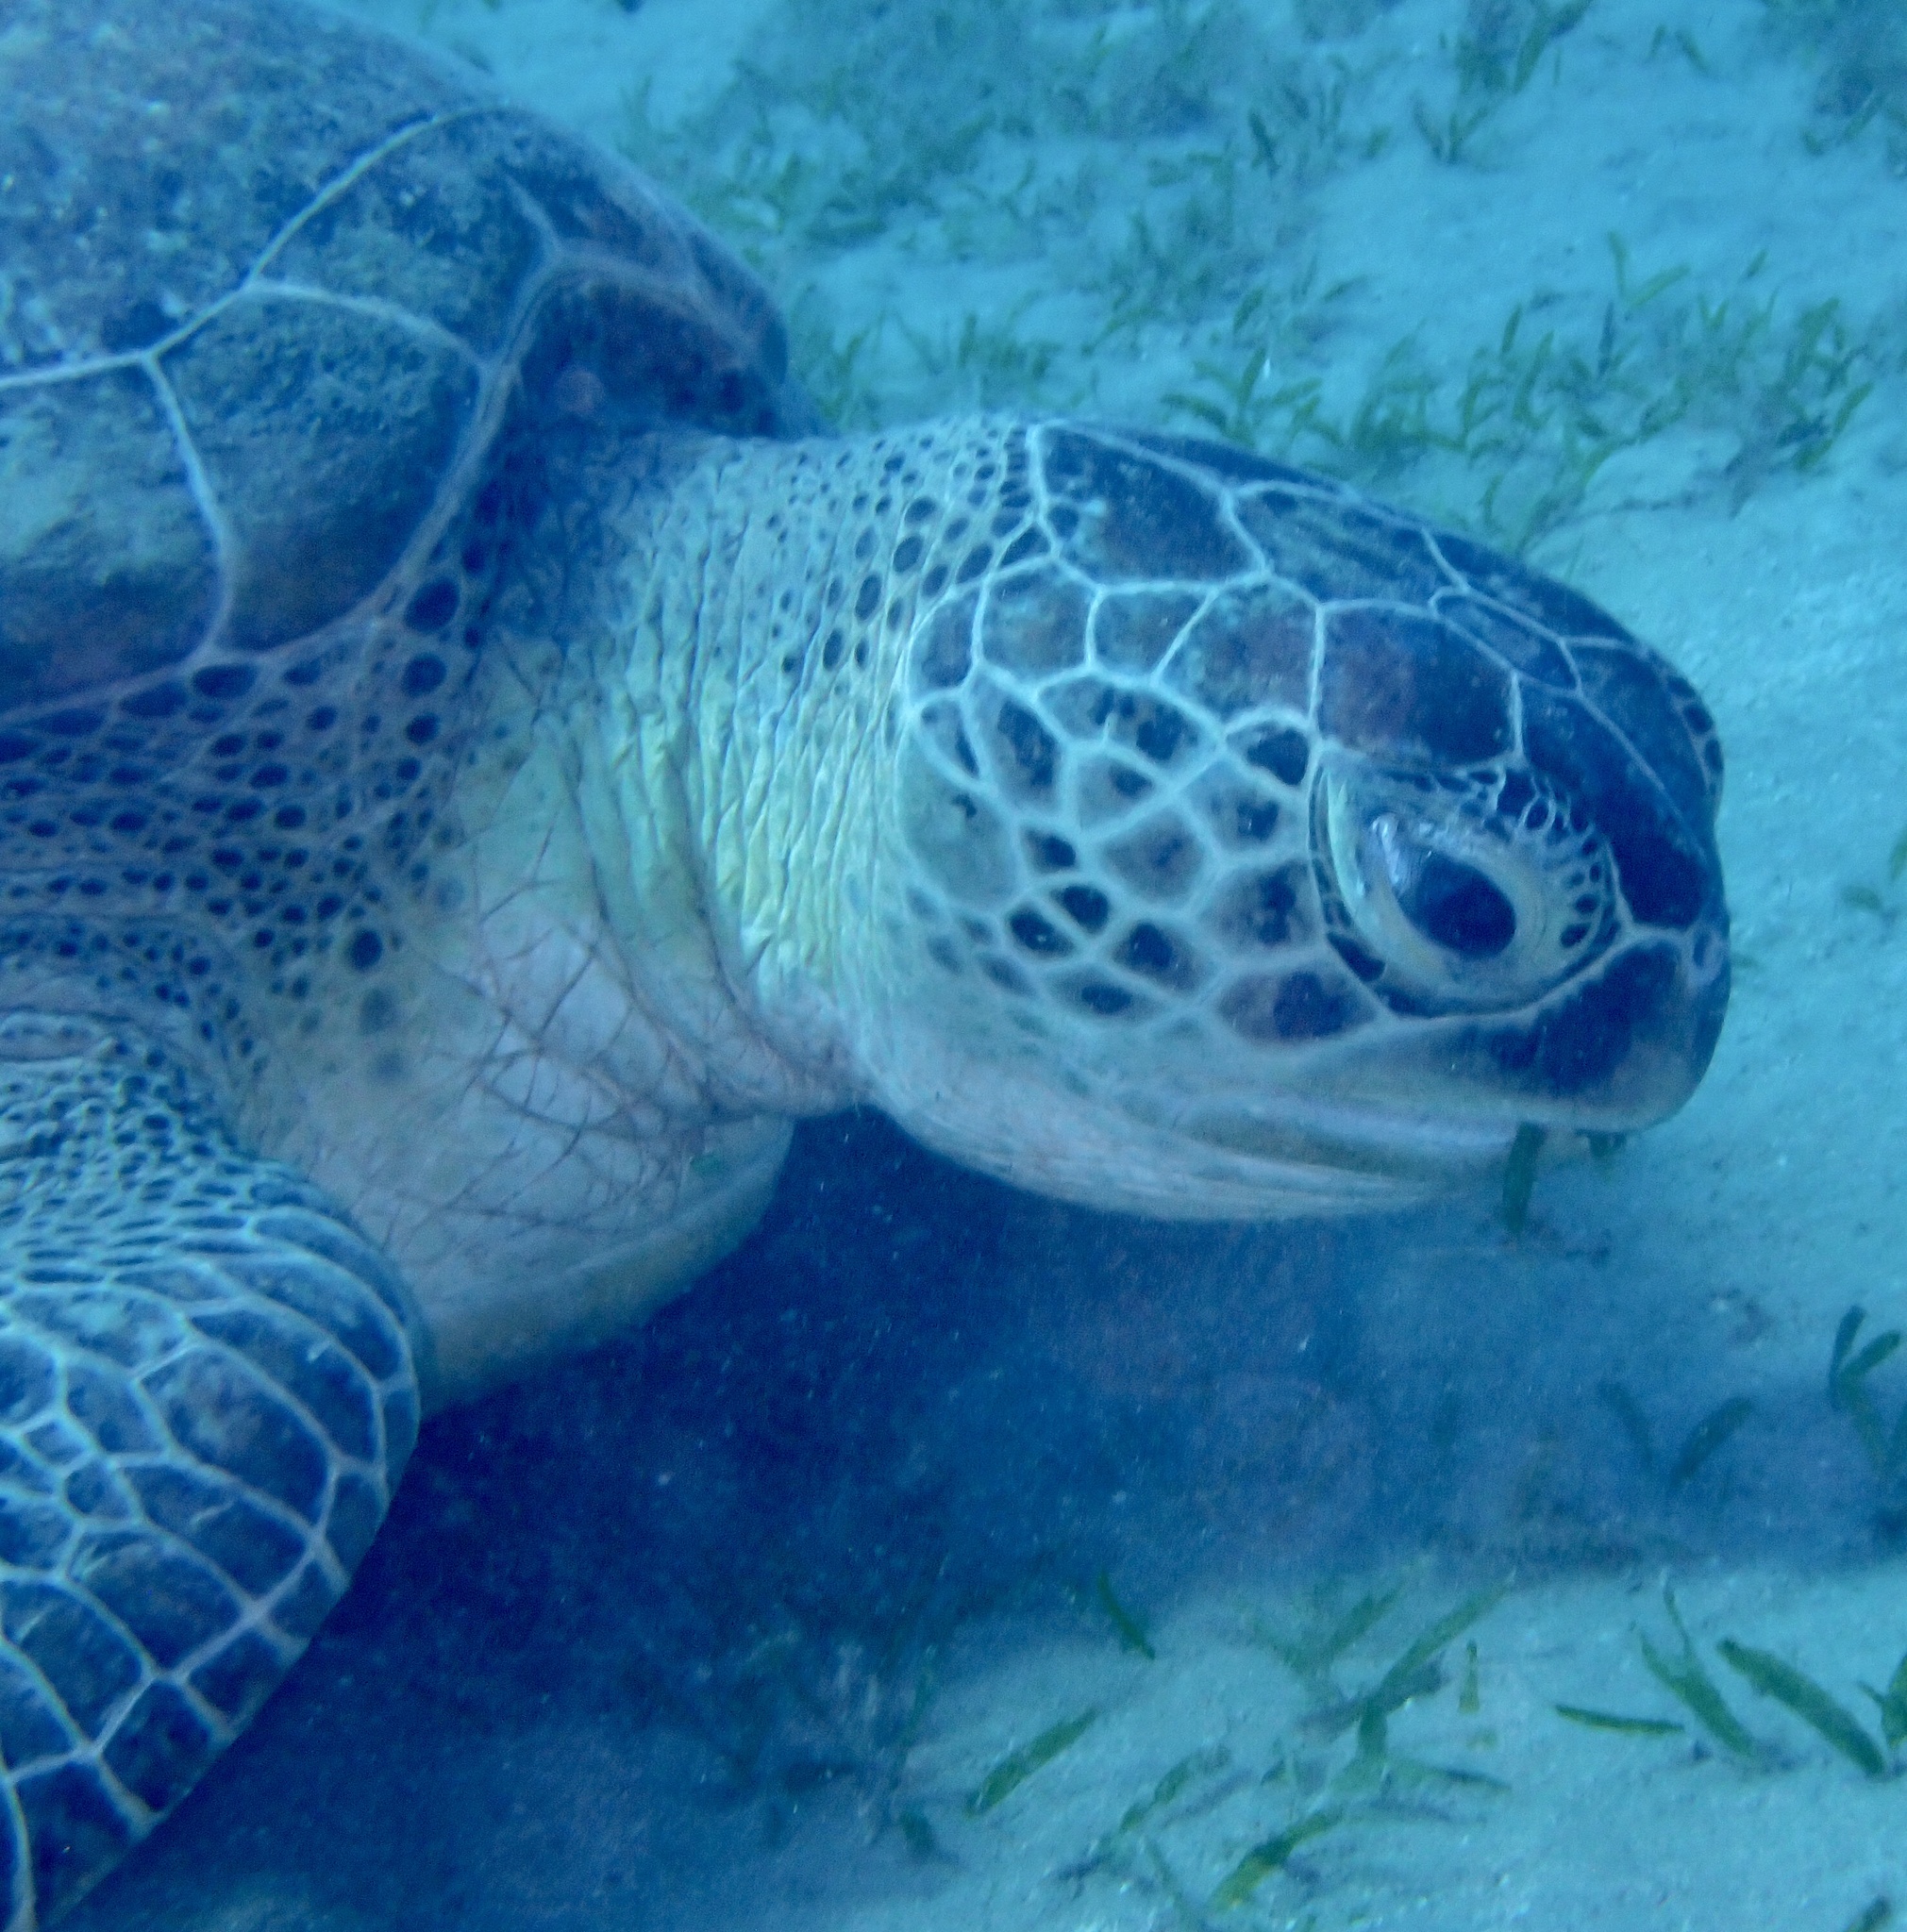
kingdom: Animalia
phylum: Chordata
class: Testudines
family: Cheloniidae
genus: Chelonia
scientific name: Chelonia mydas
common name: Green turtle
